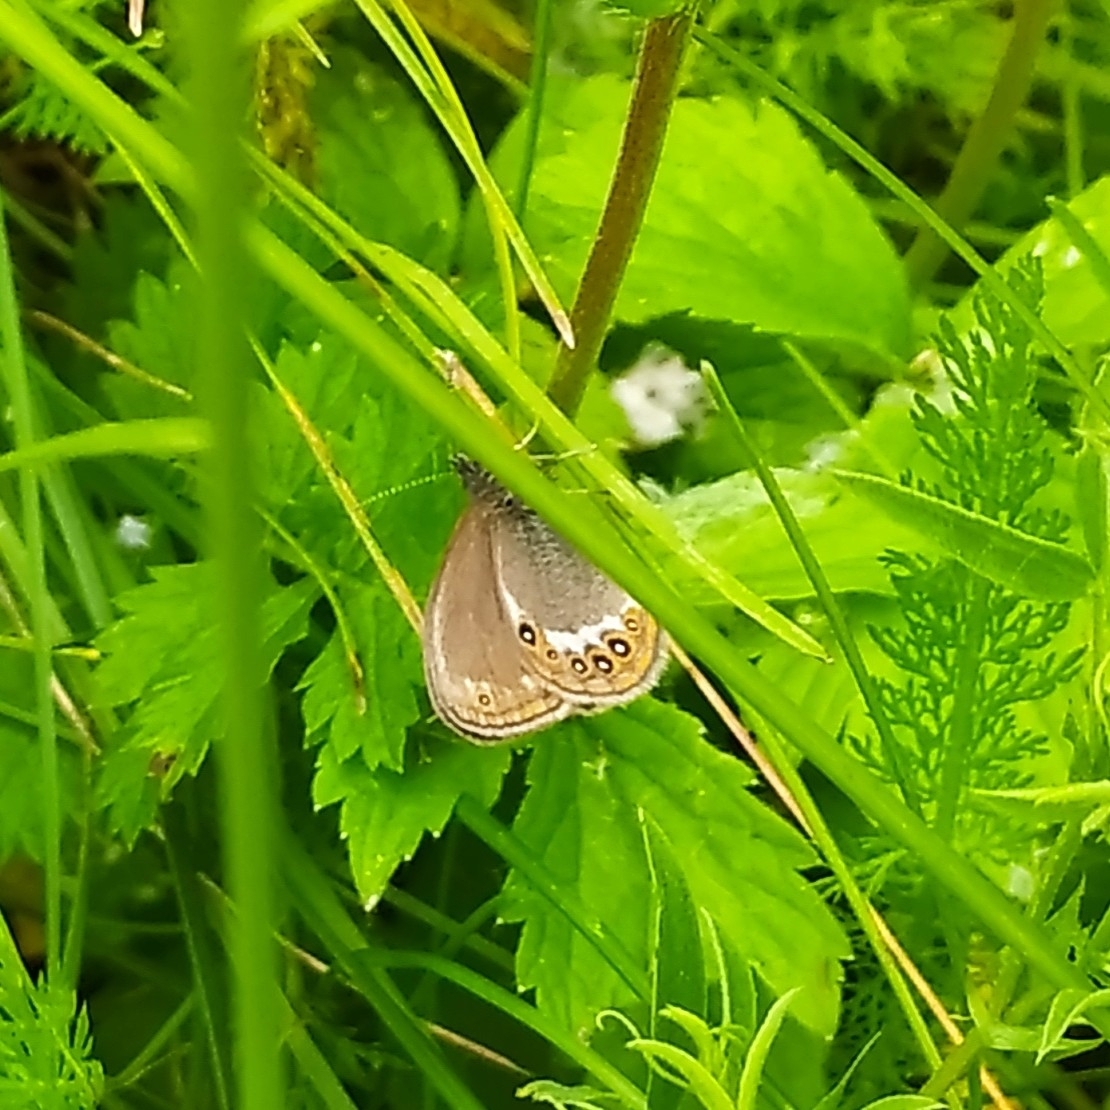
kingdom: Animalia
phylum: Arthropoda
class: Insecta
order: Lepidoptera
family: Nymphalidae
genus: Coenonympha
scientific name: Coenonympha hero
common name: Scarce heath
